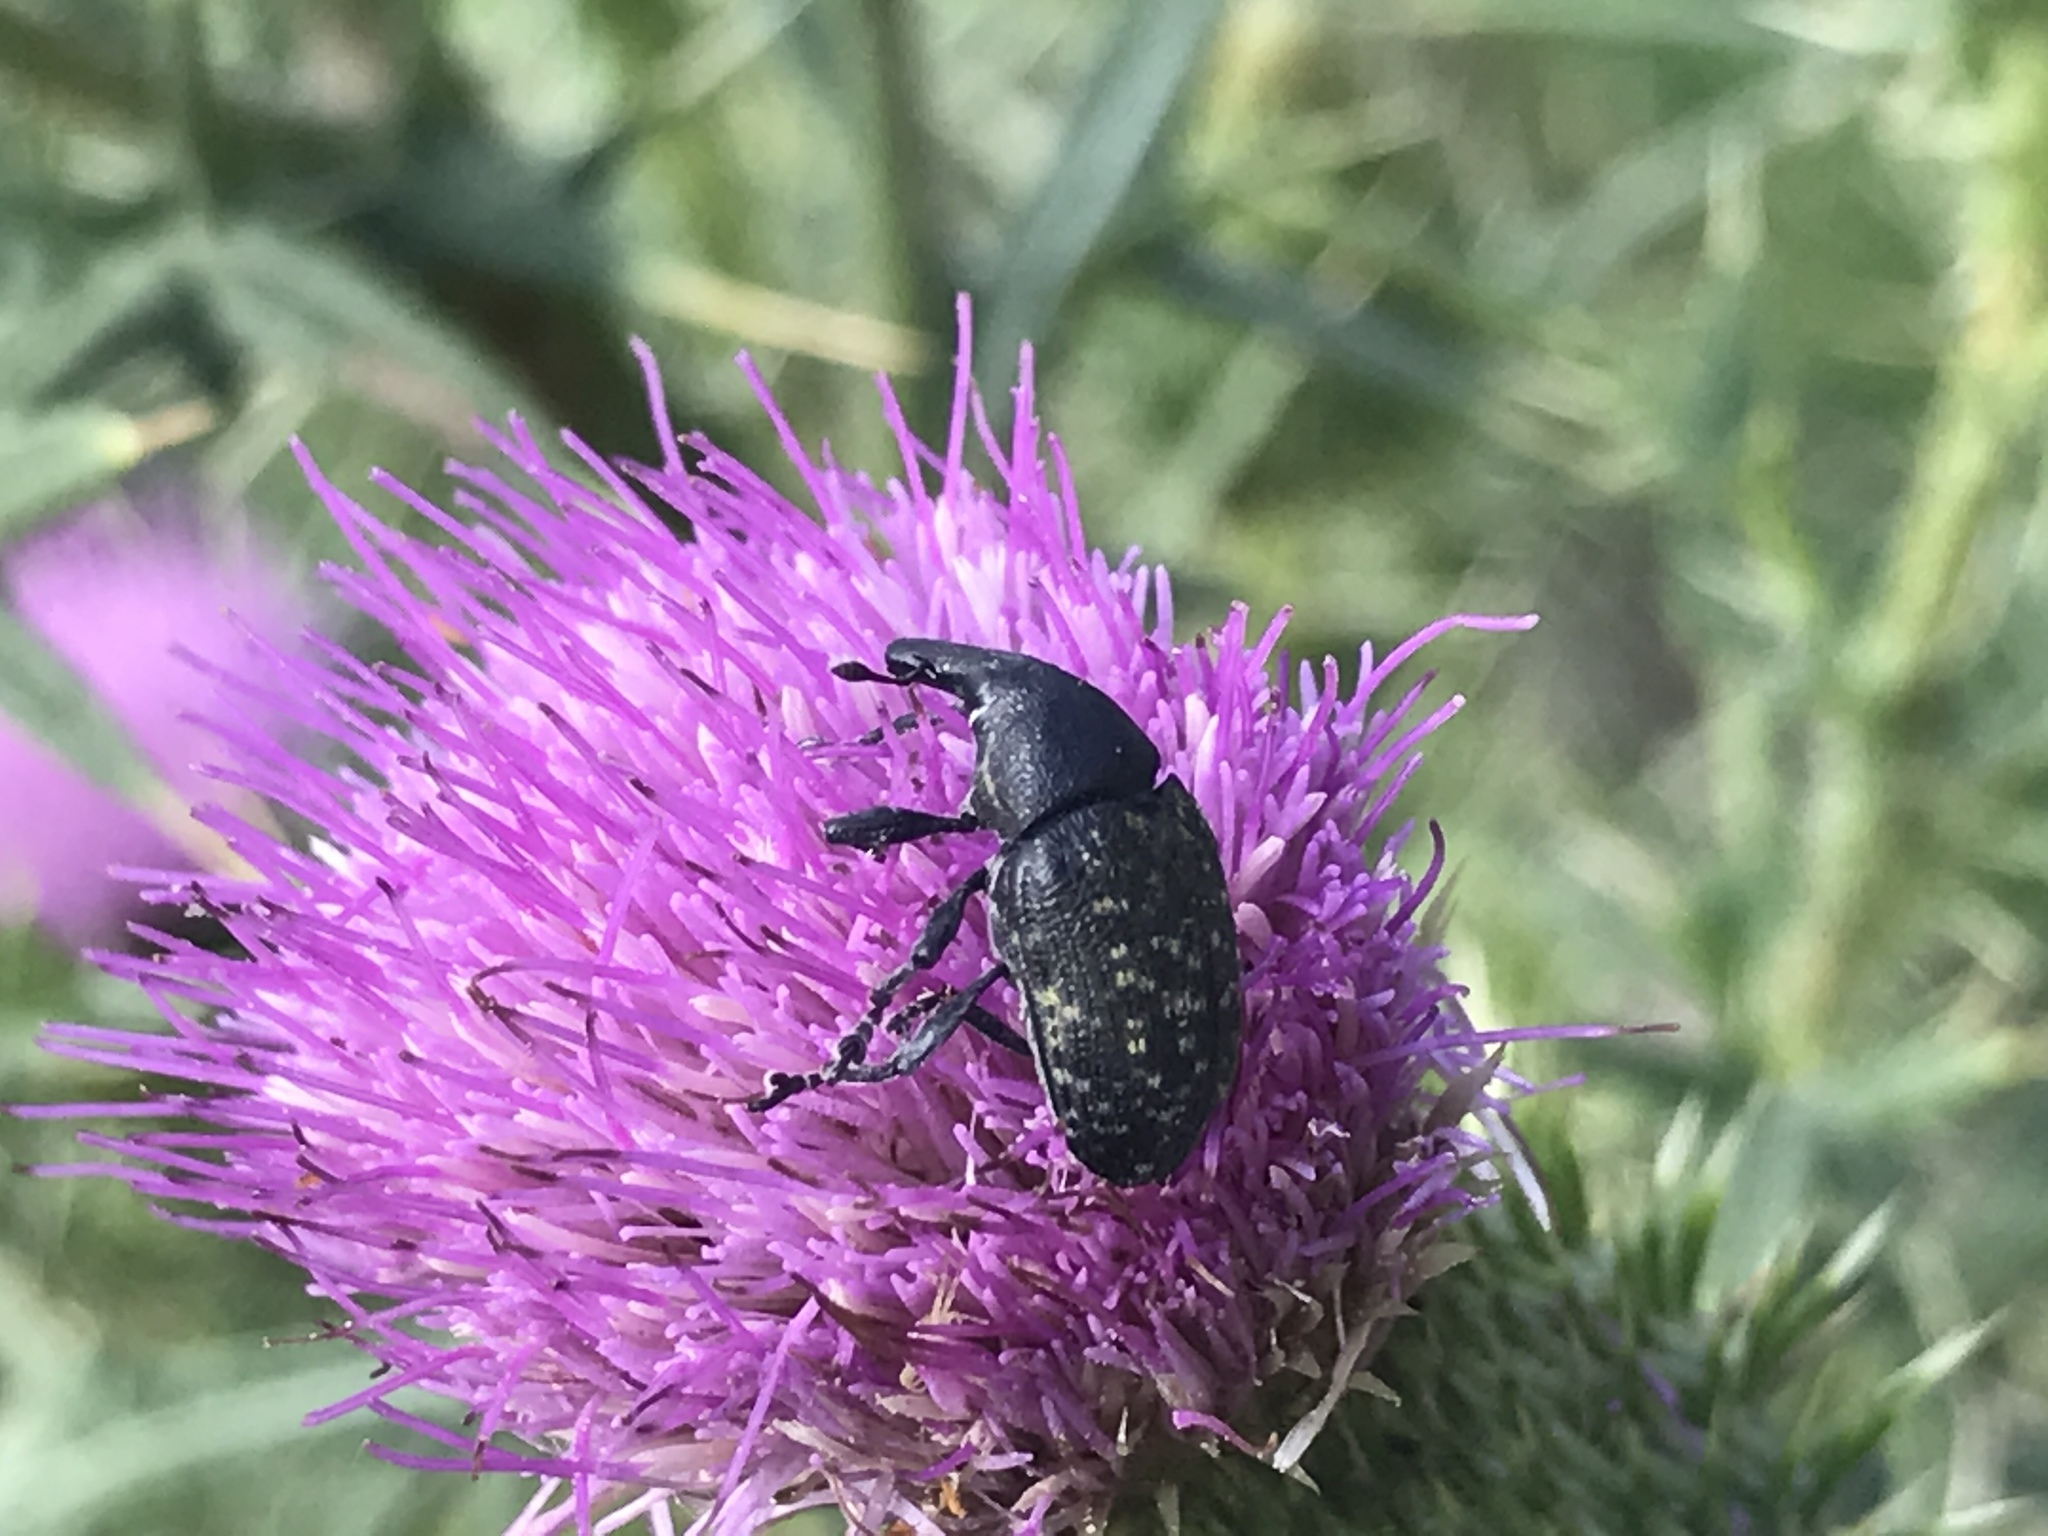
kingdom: Animalia
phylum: Arthropoda
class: Insecta
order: Coleoptera
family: Curculionidae
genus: Larinus
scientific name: Larinus turbinatus
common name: Weevil
